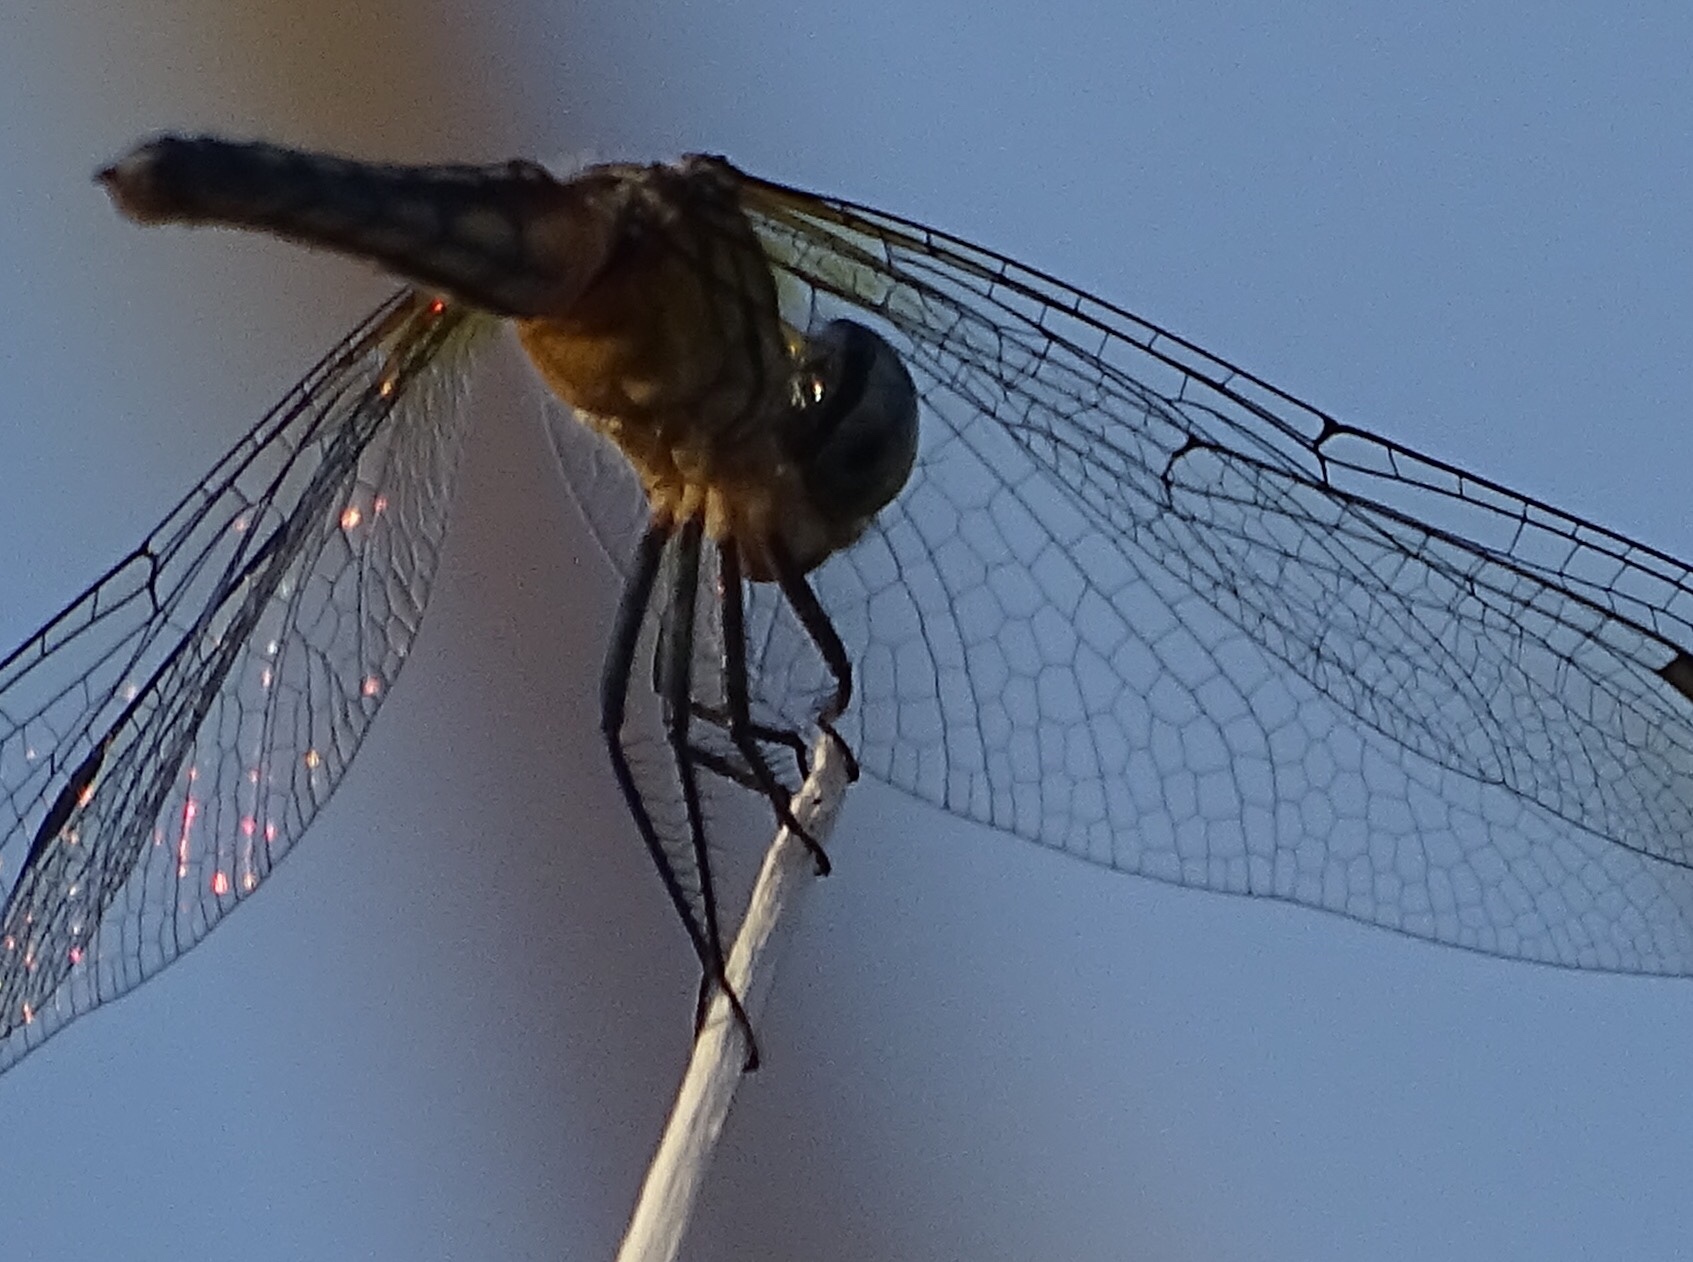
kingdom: Animalia
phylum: Arthropoda
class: Insecta
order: Odonata
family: Libellulidae
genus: Pachydiplax
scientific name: Pachydiplax longipennis
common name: Blue dasher
